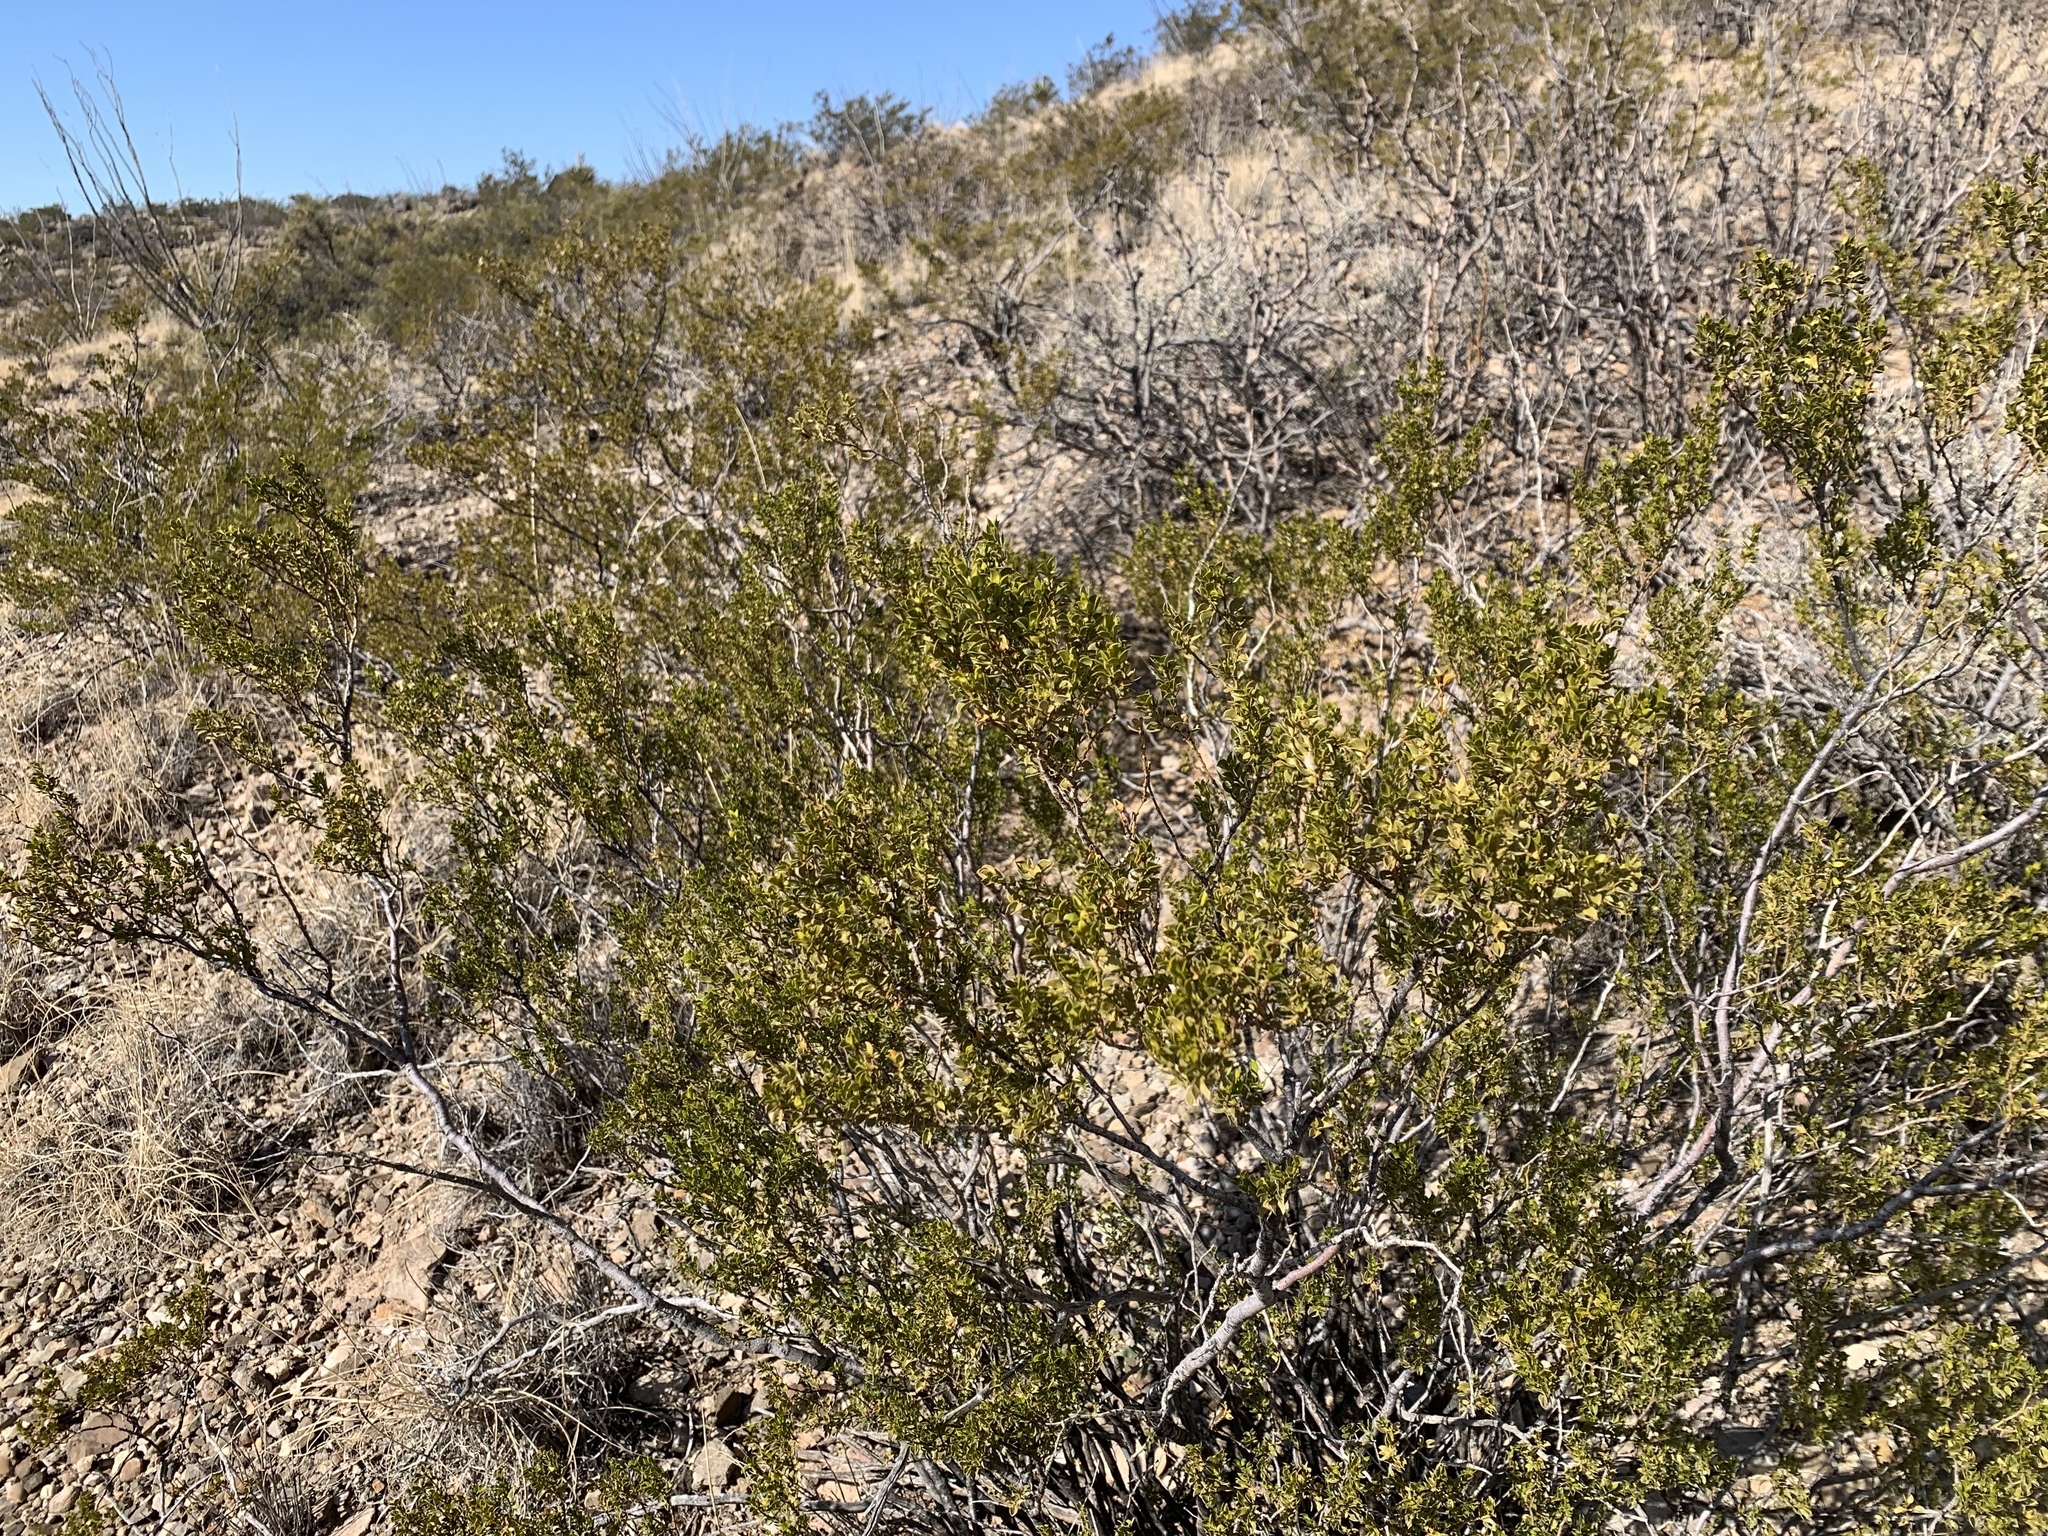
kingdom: Plantae
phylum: Tracheophyta
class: Magnoliopsida
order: Zygophyllales
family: Zygophyllaceae
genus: Larrea
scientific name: Larrea tridentata
